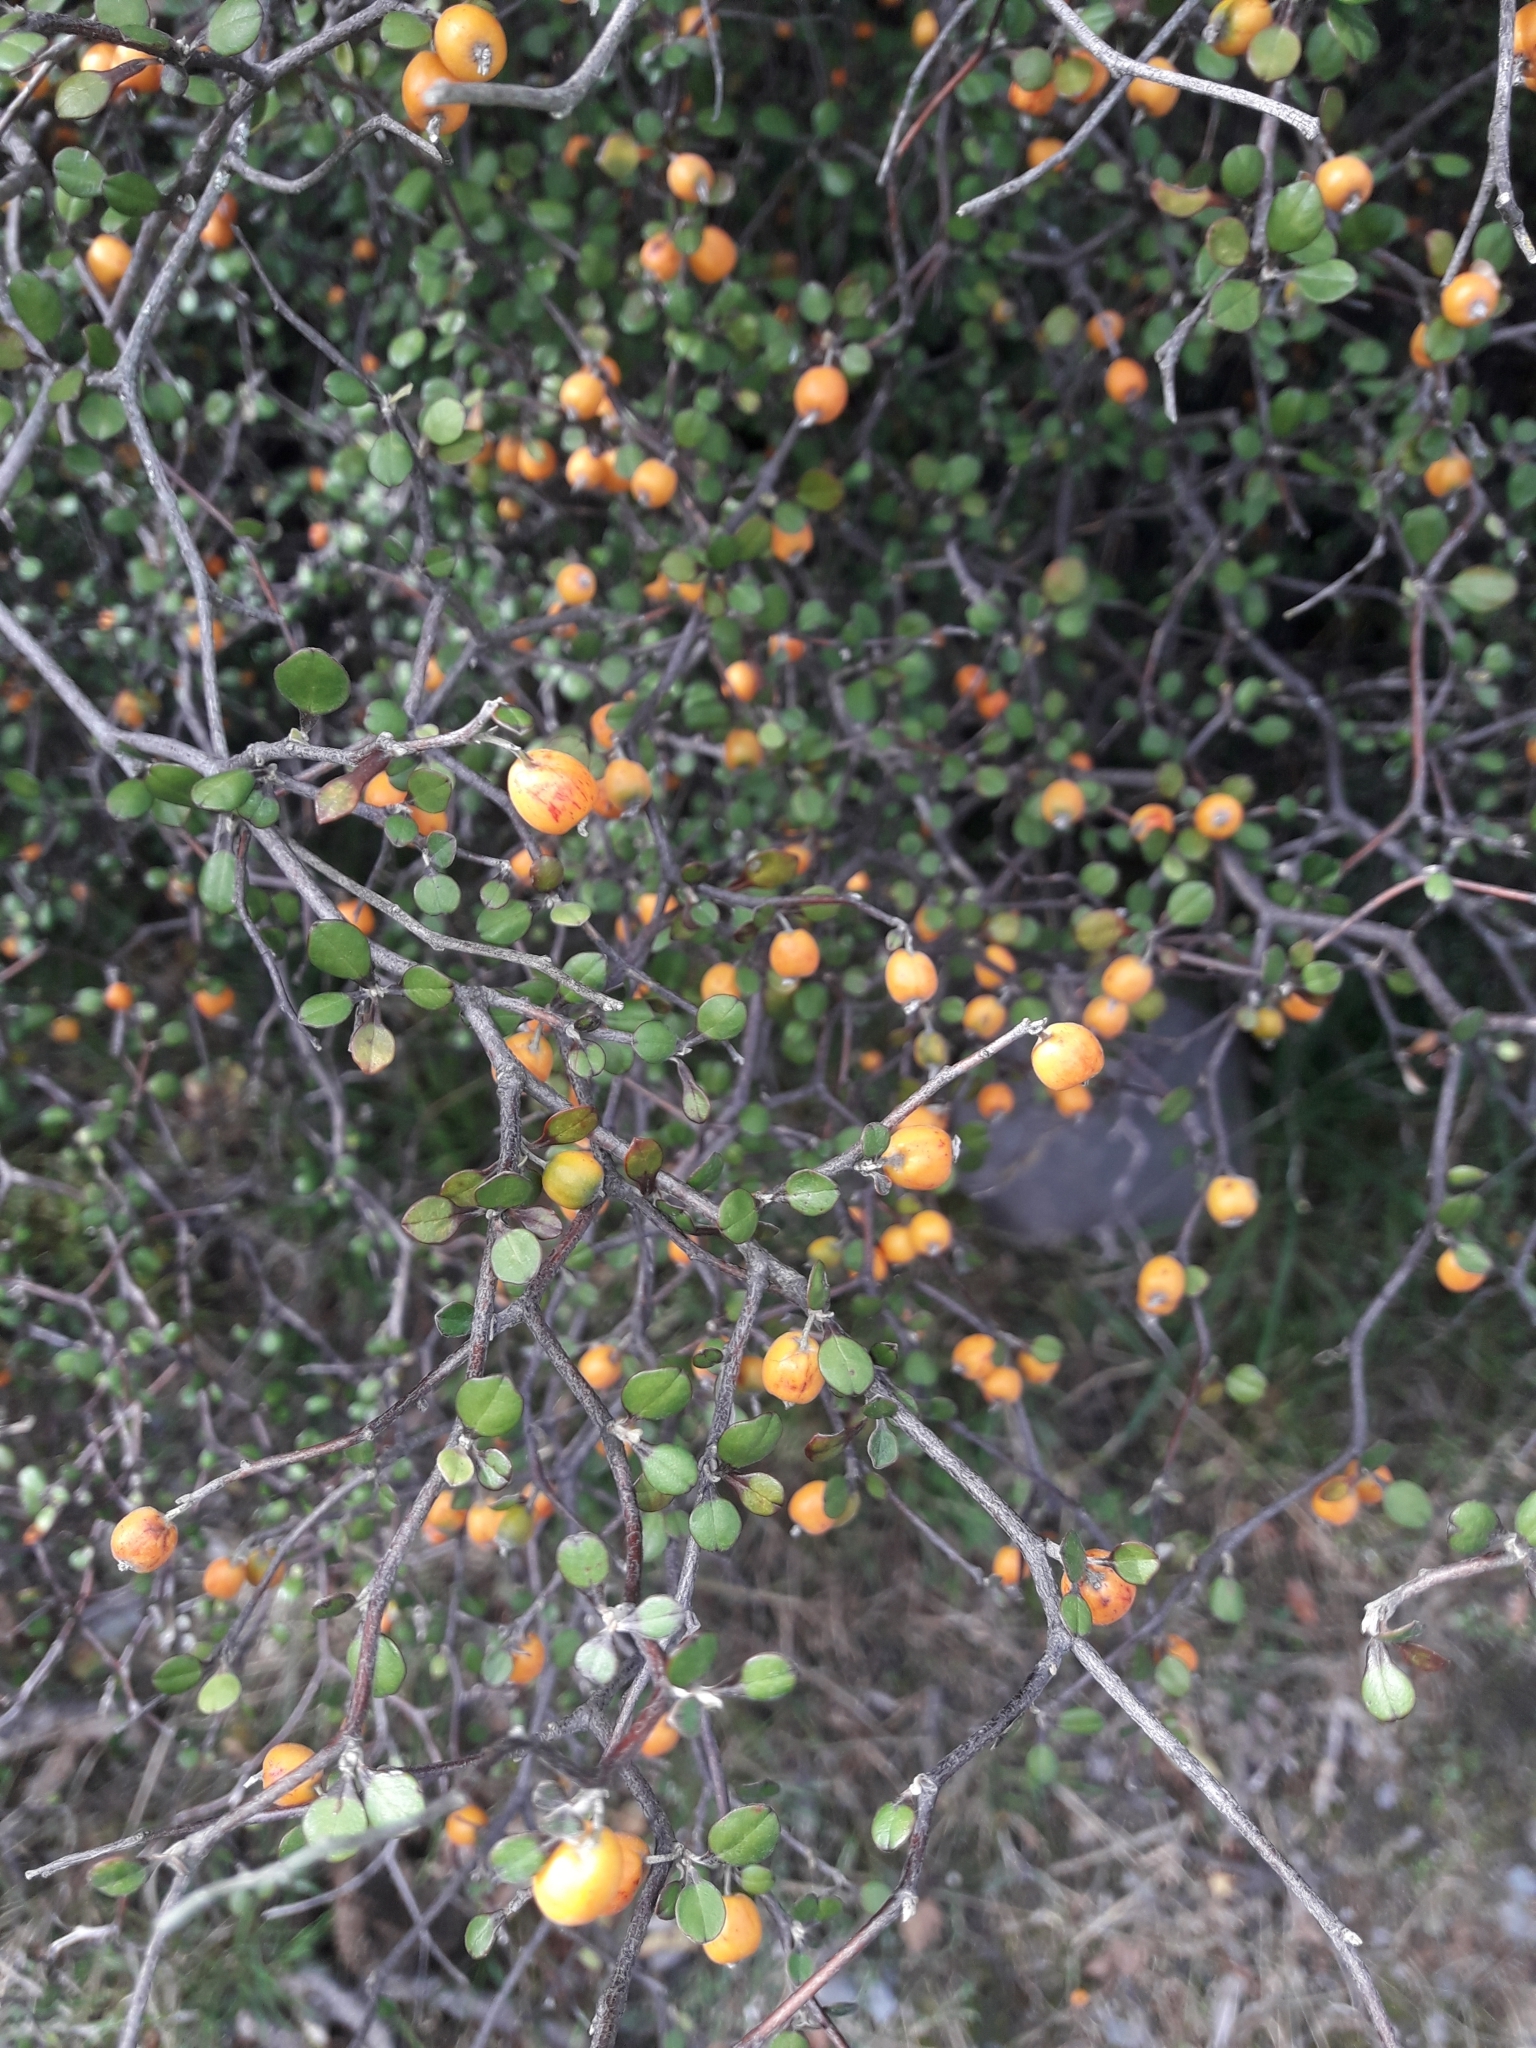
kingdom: Plantae
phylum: Tracheophyta
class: Magnoliopsida
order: Asterales
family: Argophyllaceae
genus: Corokia
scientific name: Corokia cotoneaster
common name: Wire nettingbush
